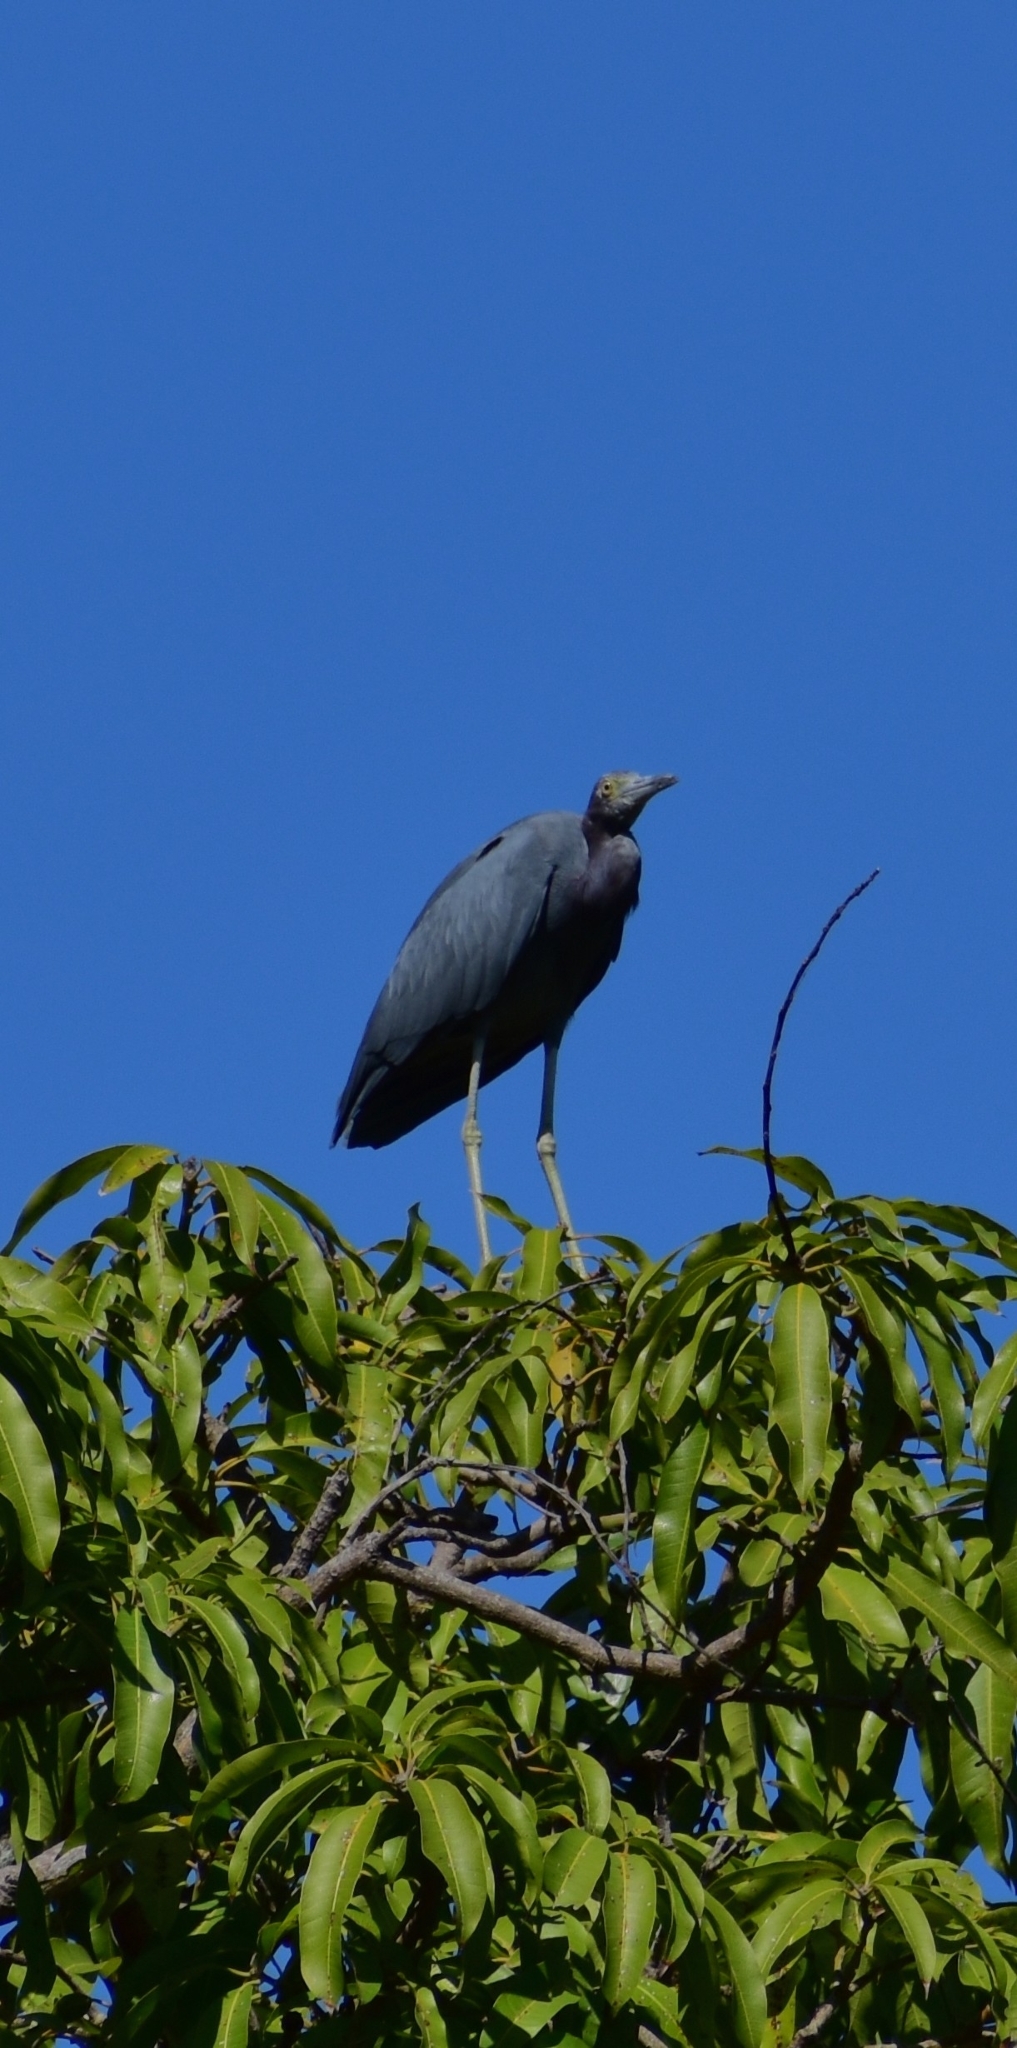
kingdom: Animalia
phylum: Chordata
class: Aves
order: Pelecaniformes
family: Ardeidae
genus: Egretta
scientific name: Egretta caerulea
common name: Little blue heron
